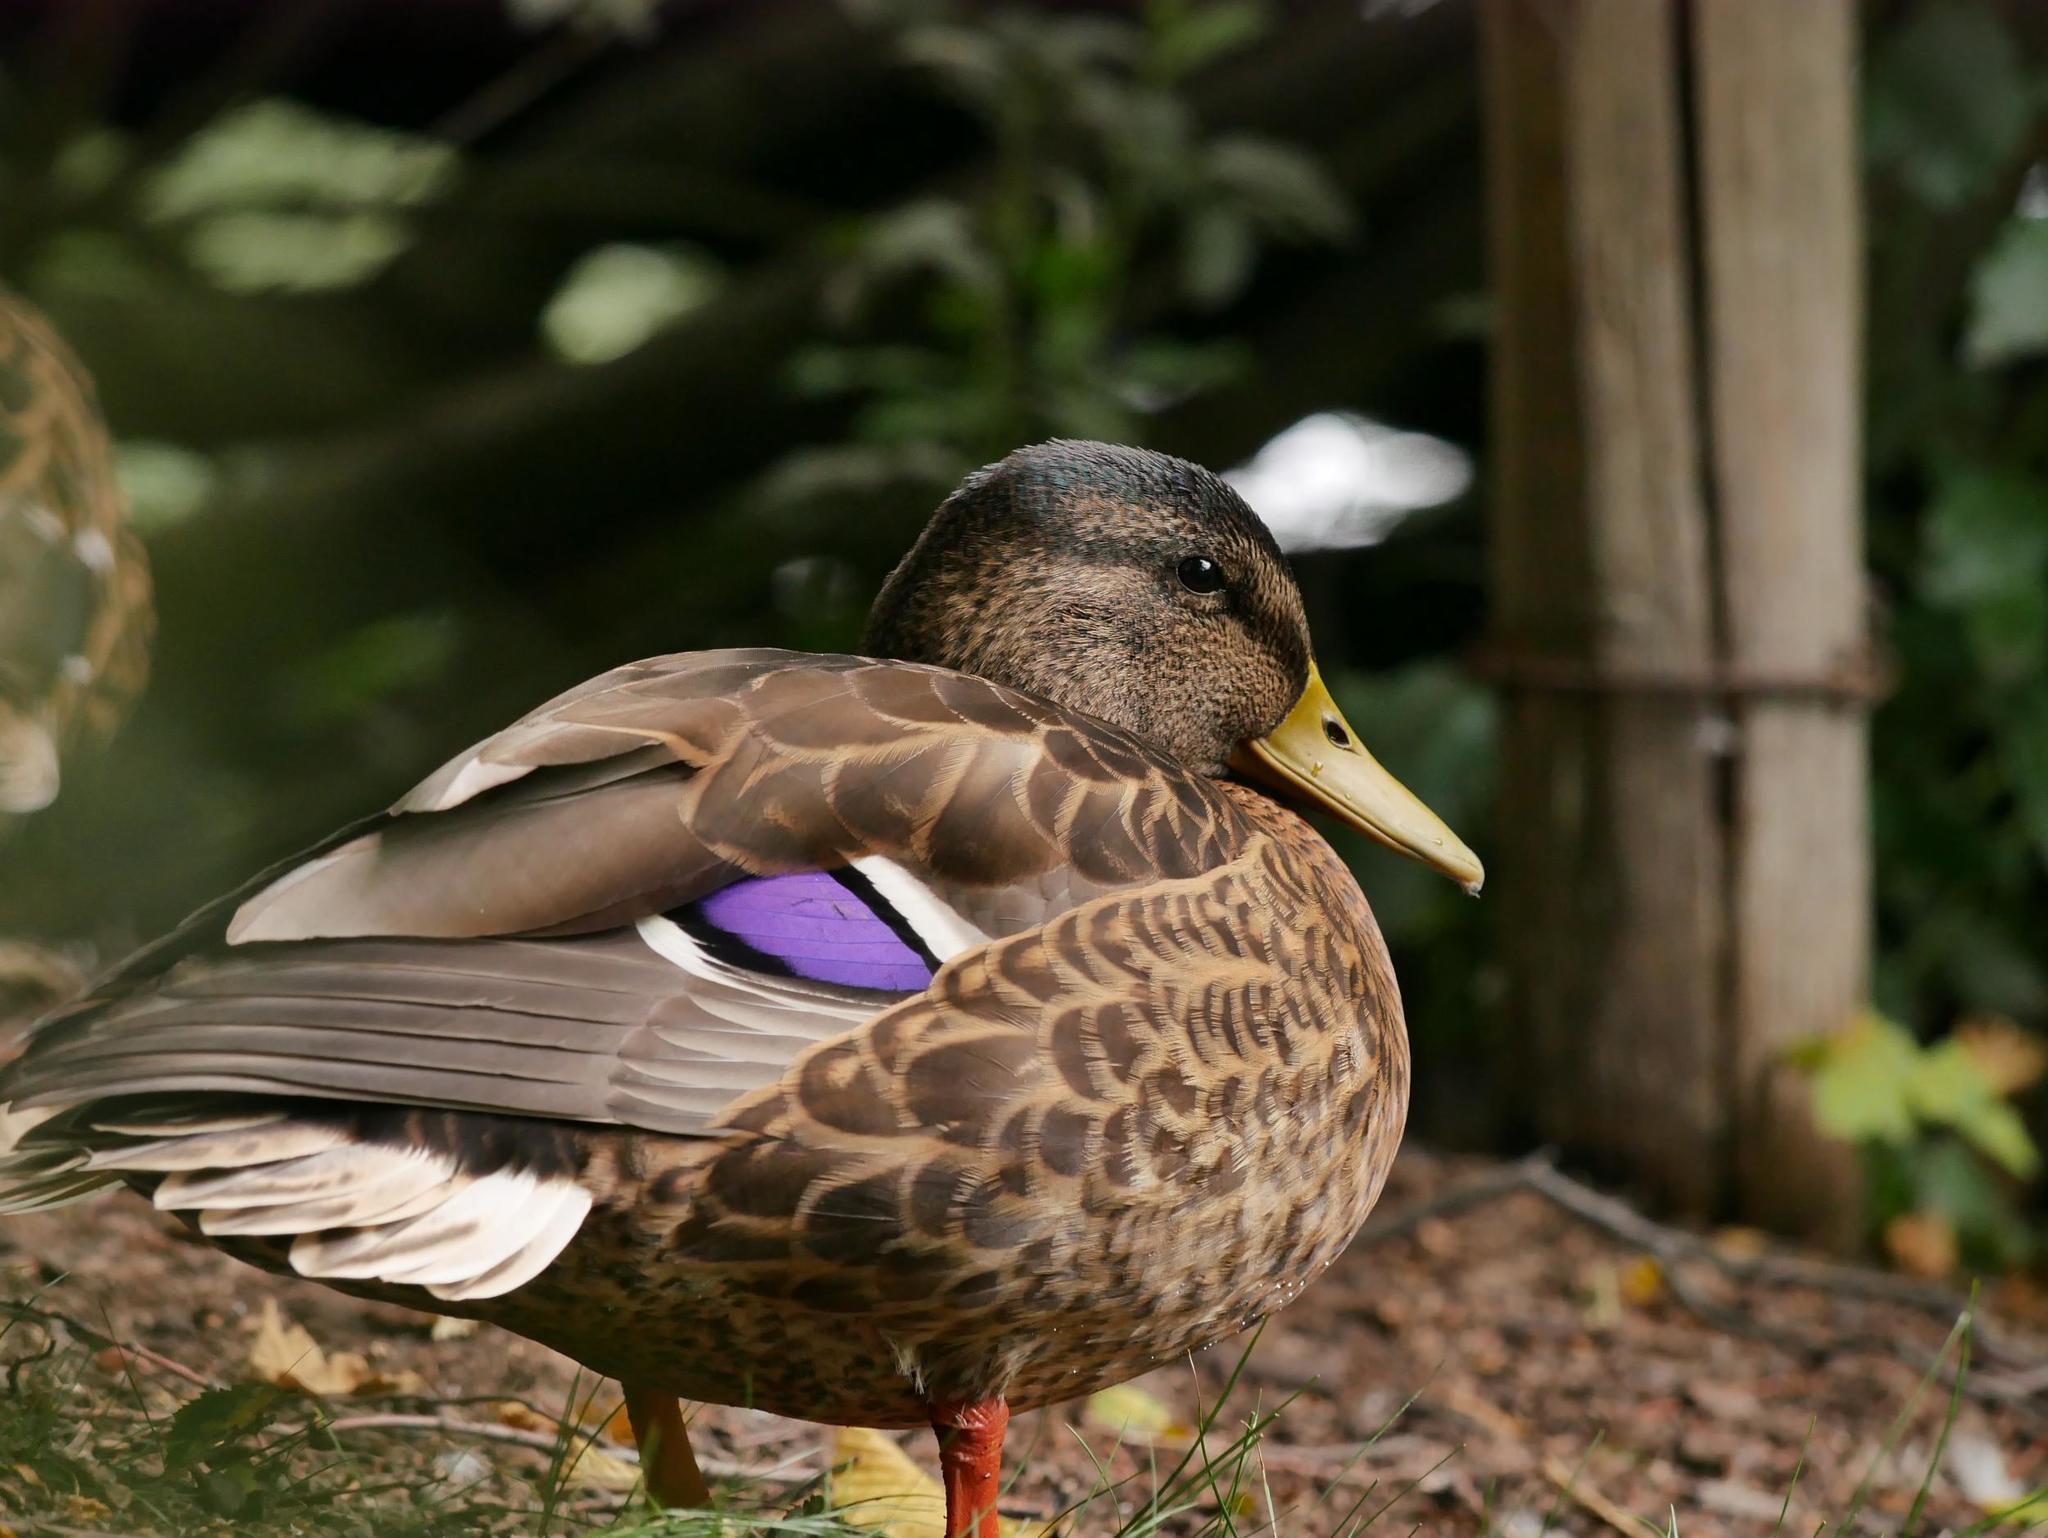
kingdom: Animalia
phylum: Chordata
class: Aves
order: Anseriformes
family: Anatidae
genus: Anas
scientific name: Anas platyrhynchos
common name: Mallard
